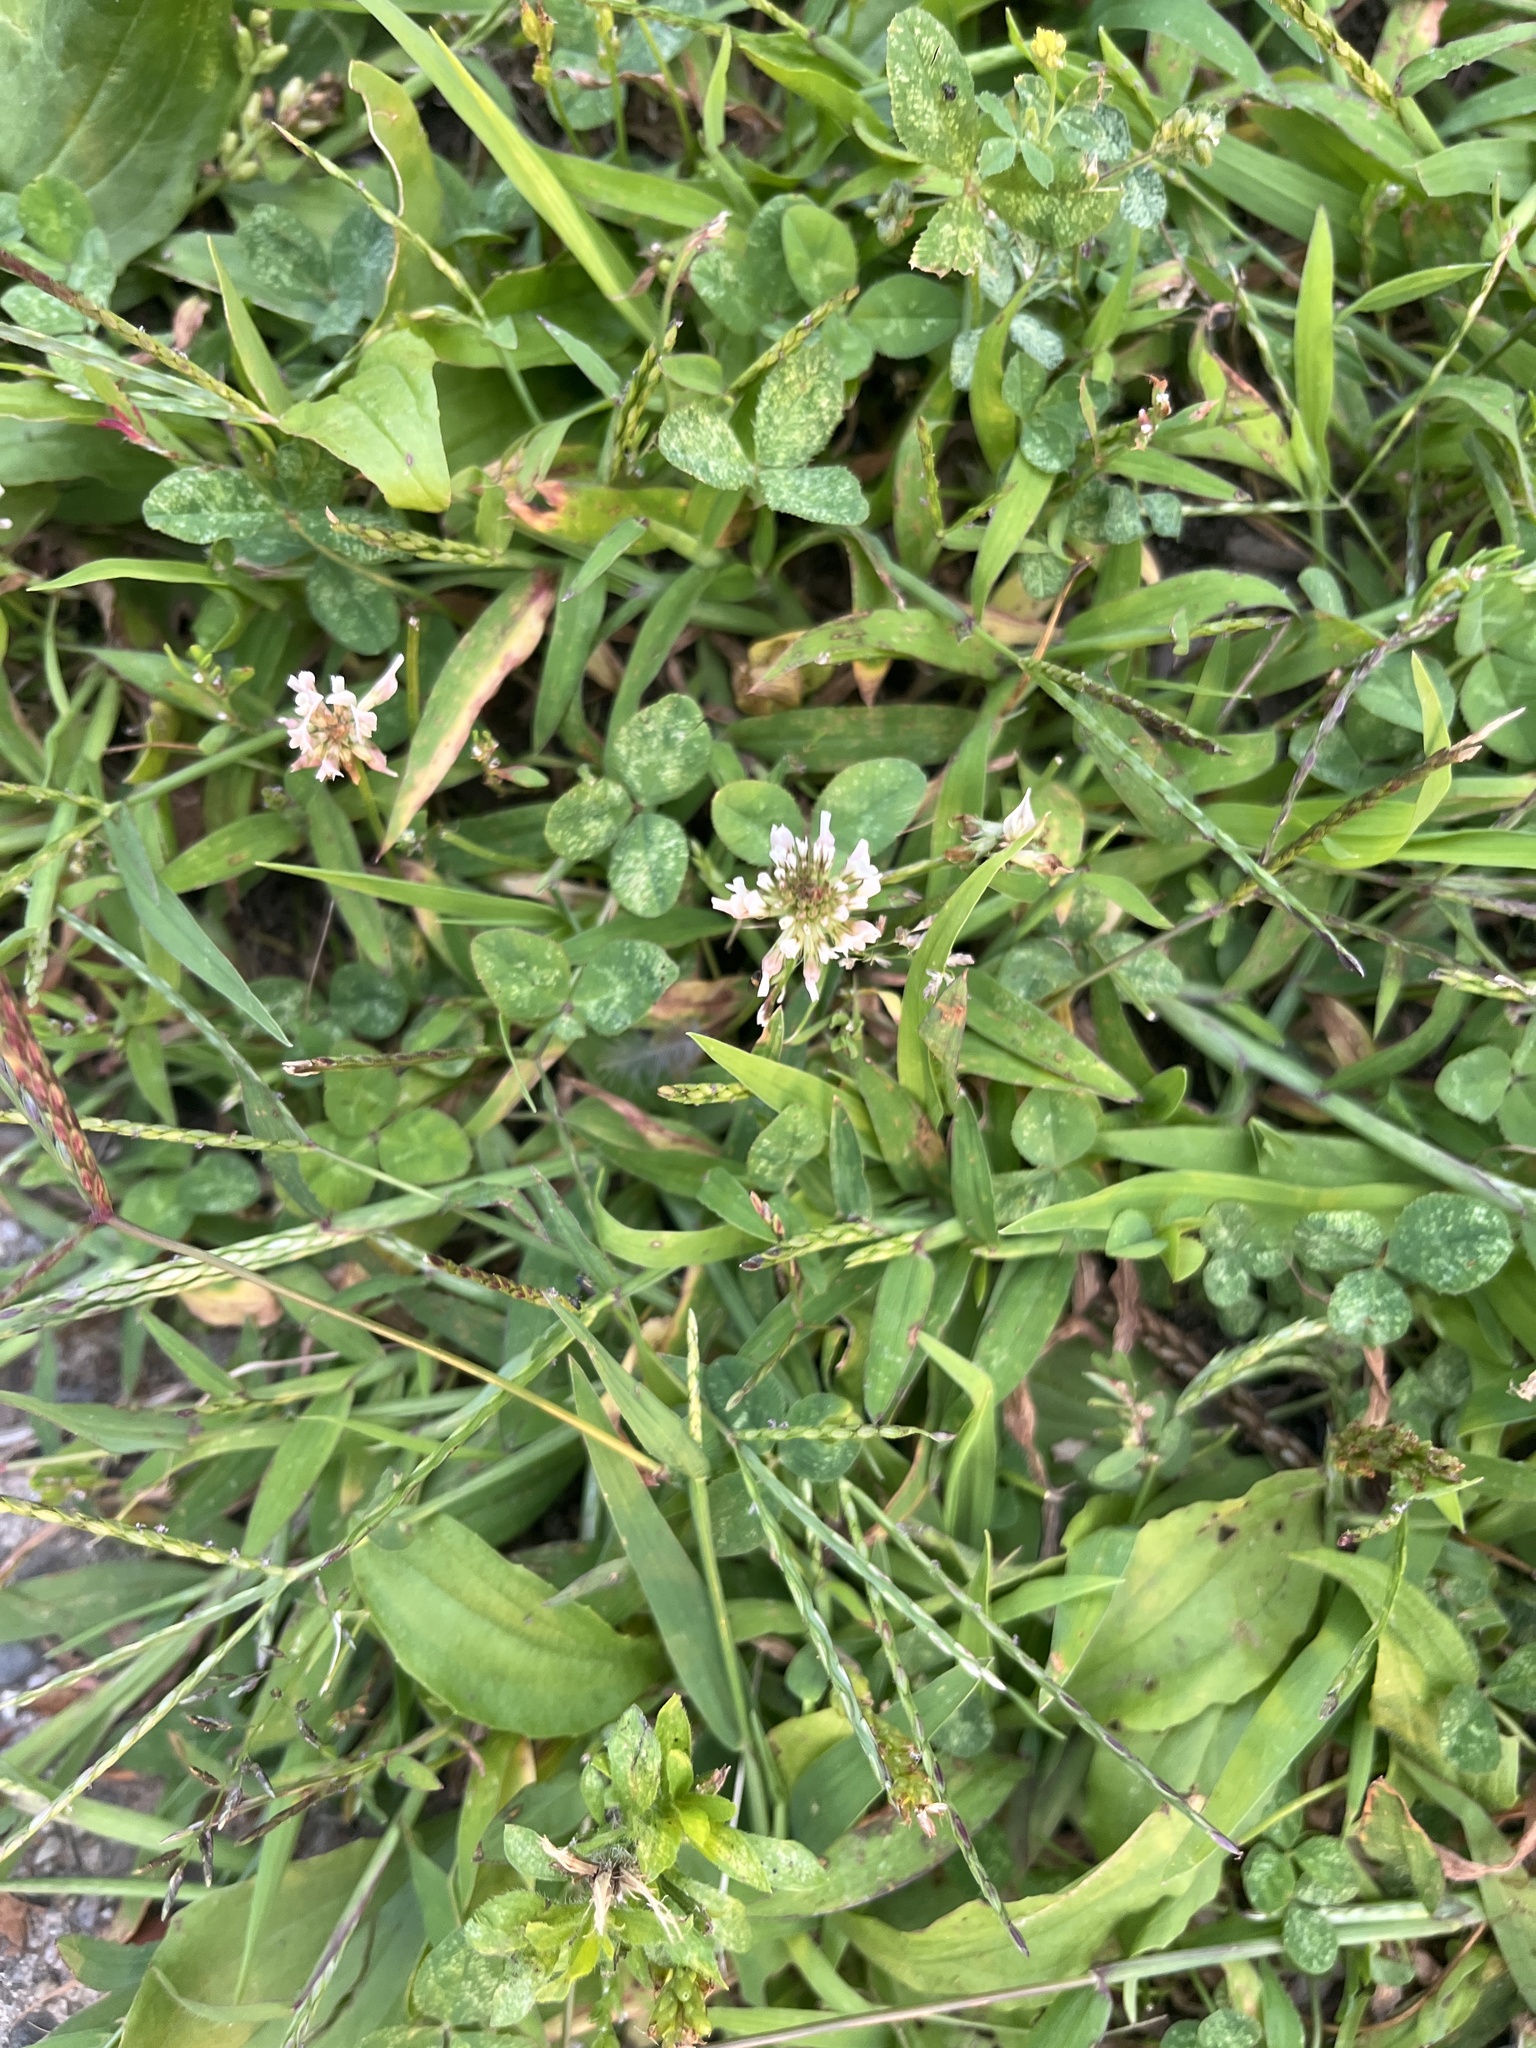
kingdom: Plantae
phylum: Tracheophyta
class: Magnoliopsida
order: Fabales
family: Fabaceae
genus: Trifolium
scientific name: Trifolium repens
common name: White clover
